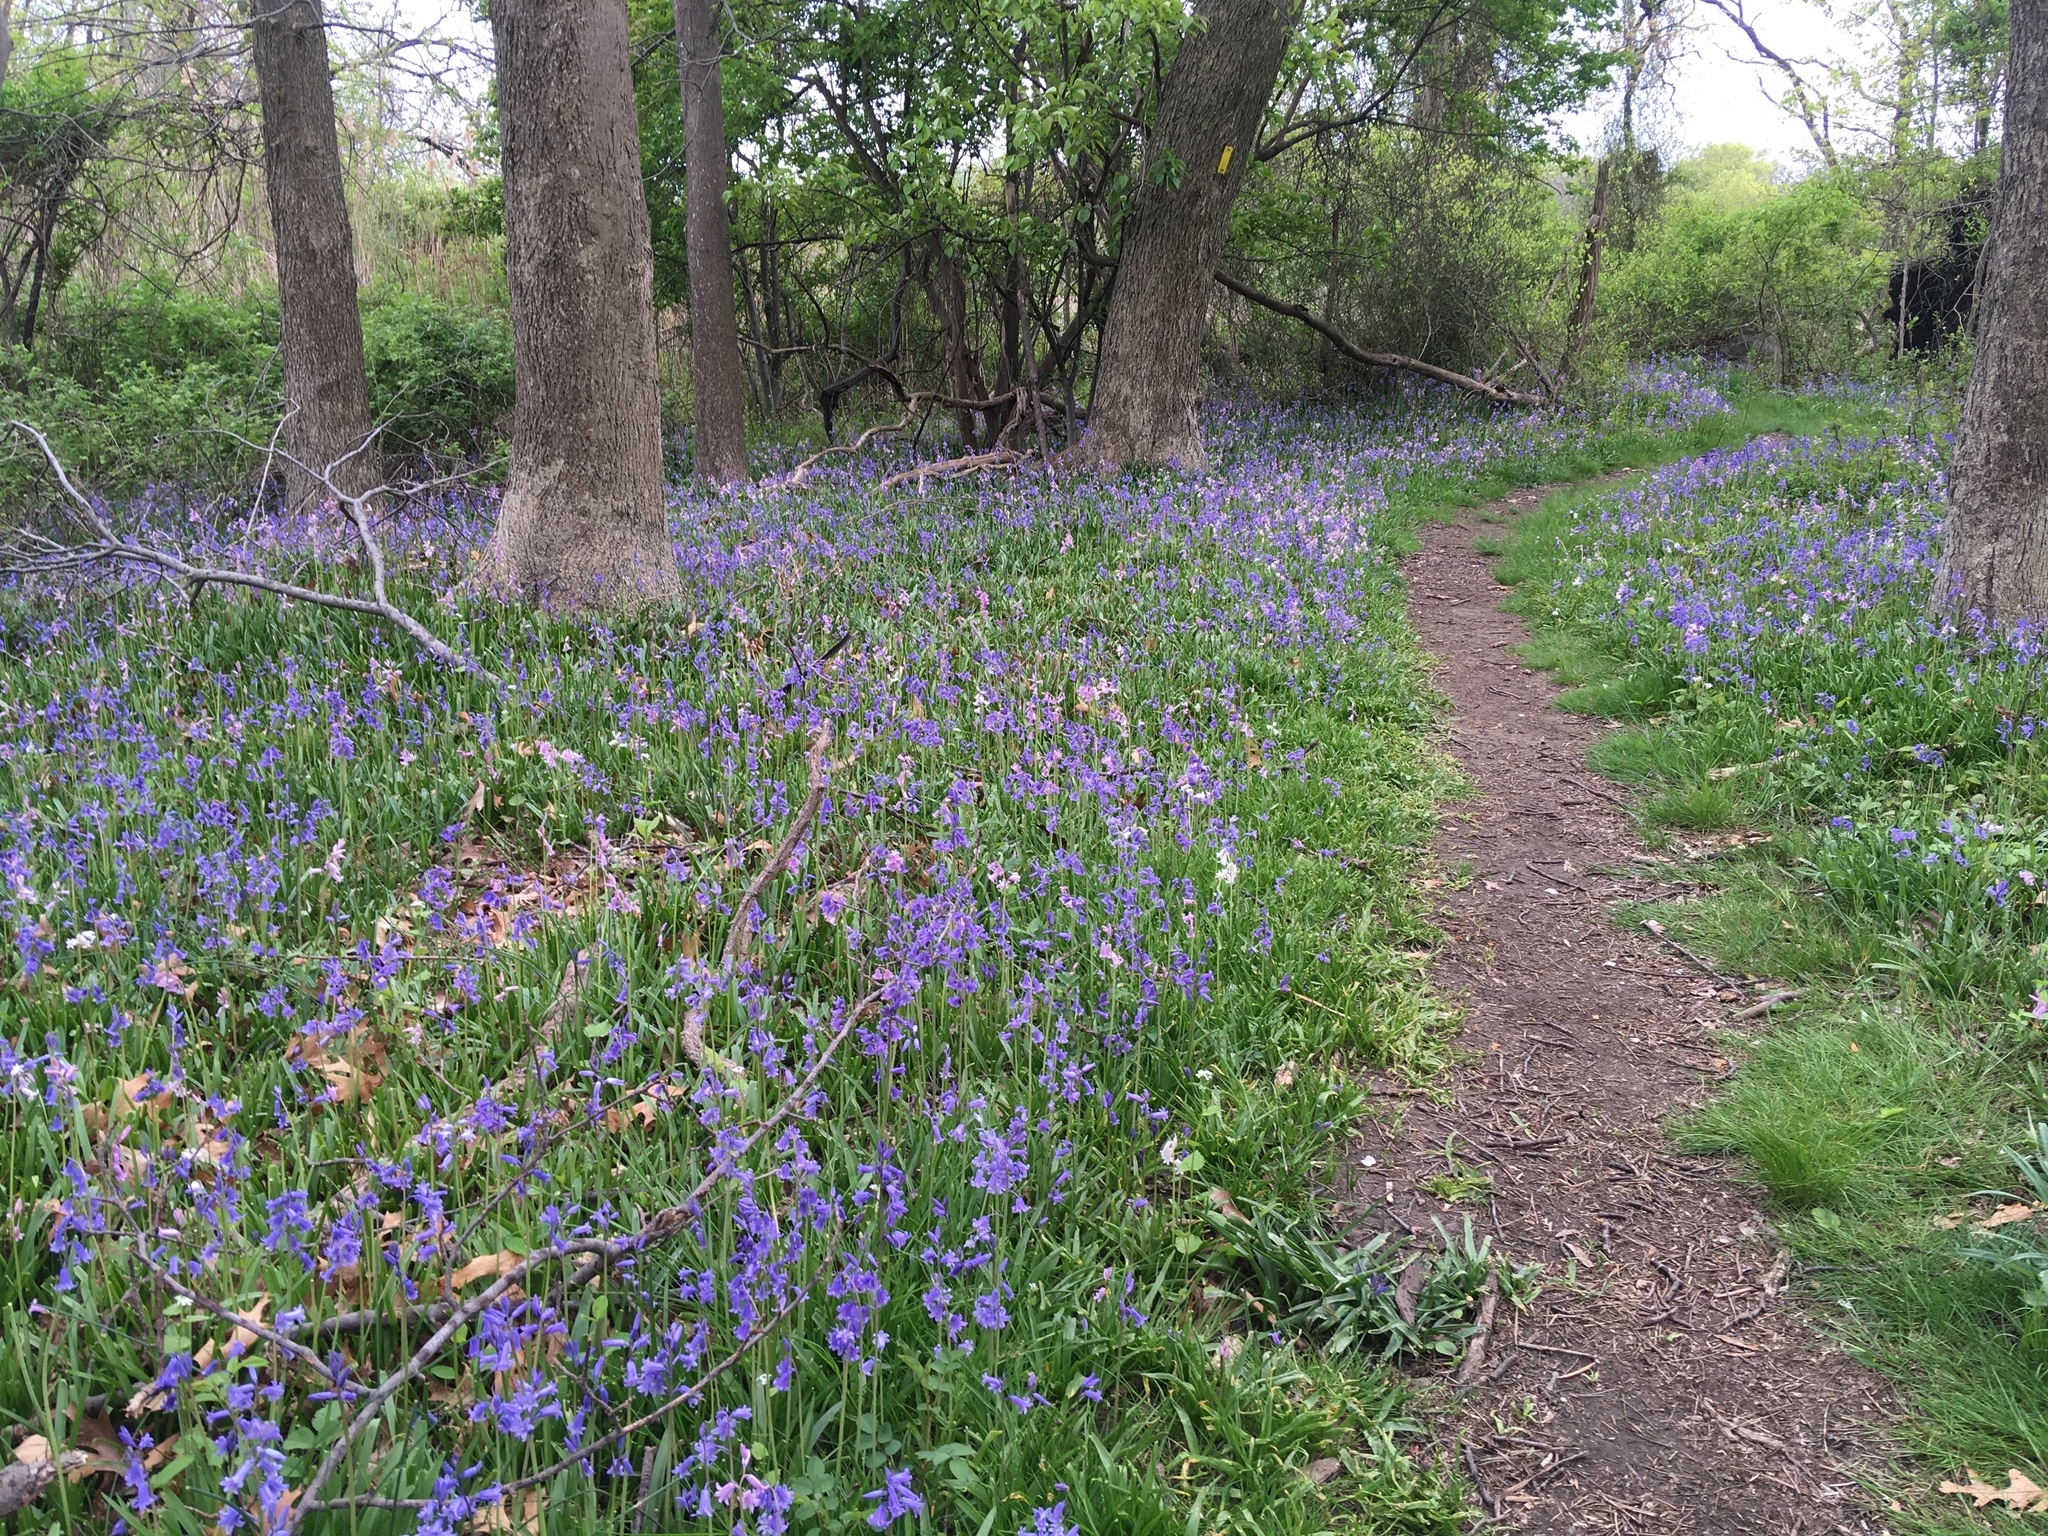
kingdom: Plantae
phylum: Tracheophyta
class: Liliopsida
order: Asparagales
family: Asparagaceae
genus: Hyacinthoides
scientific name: Hyacinthoides massartiana
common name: Hyacinthoides
